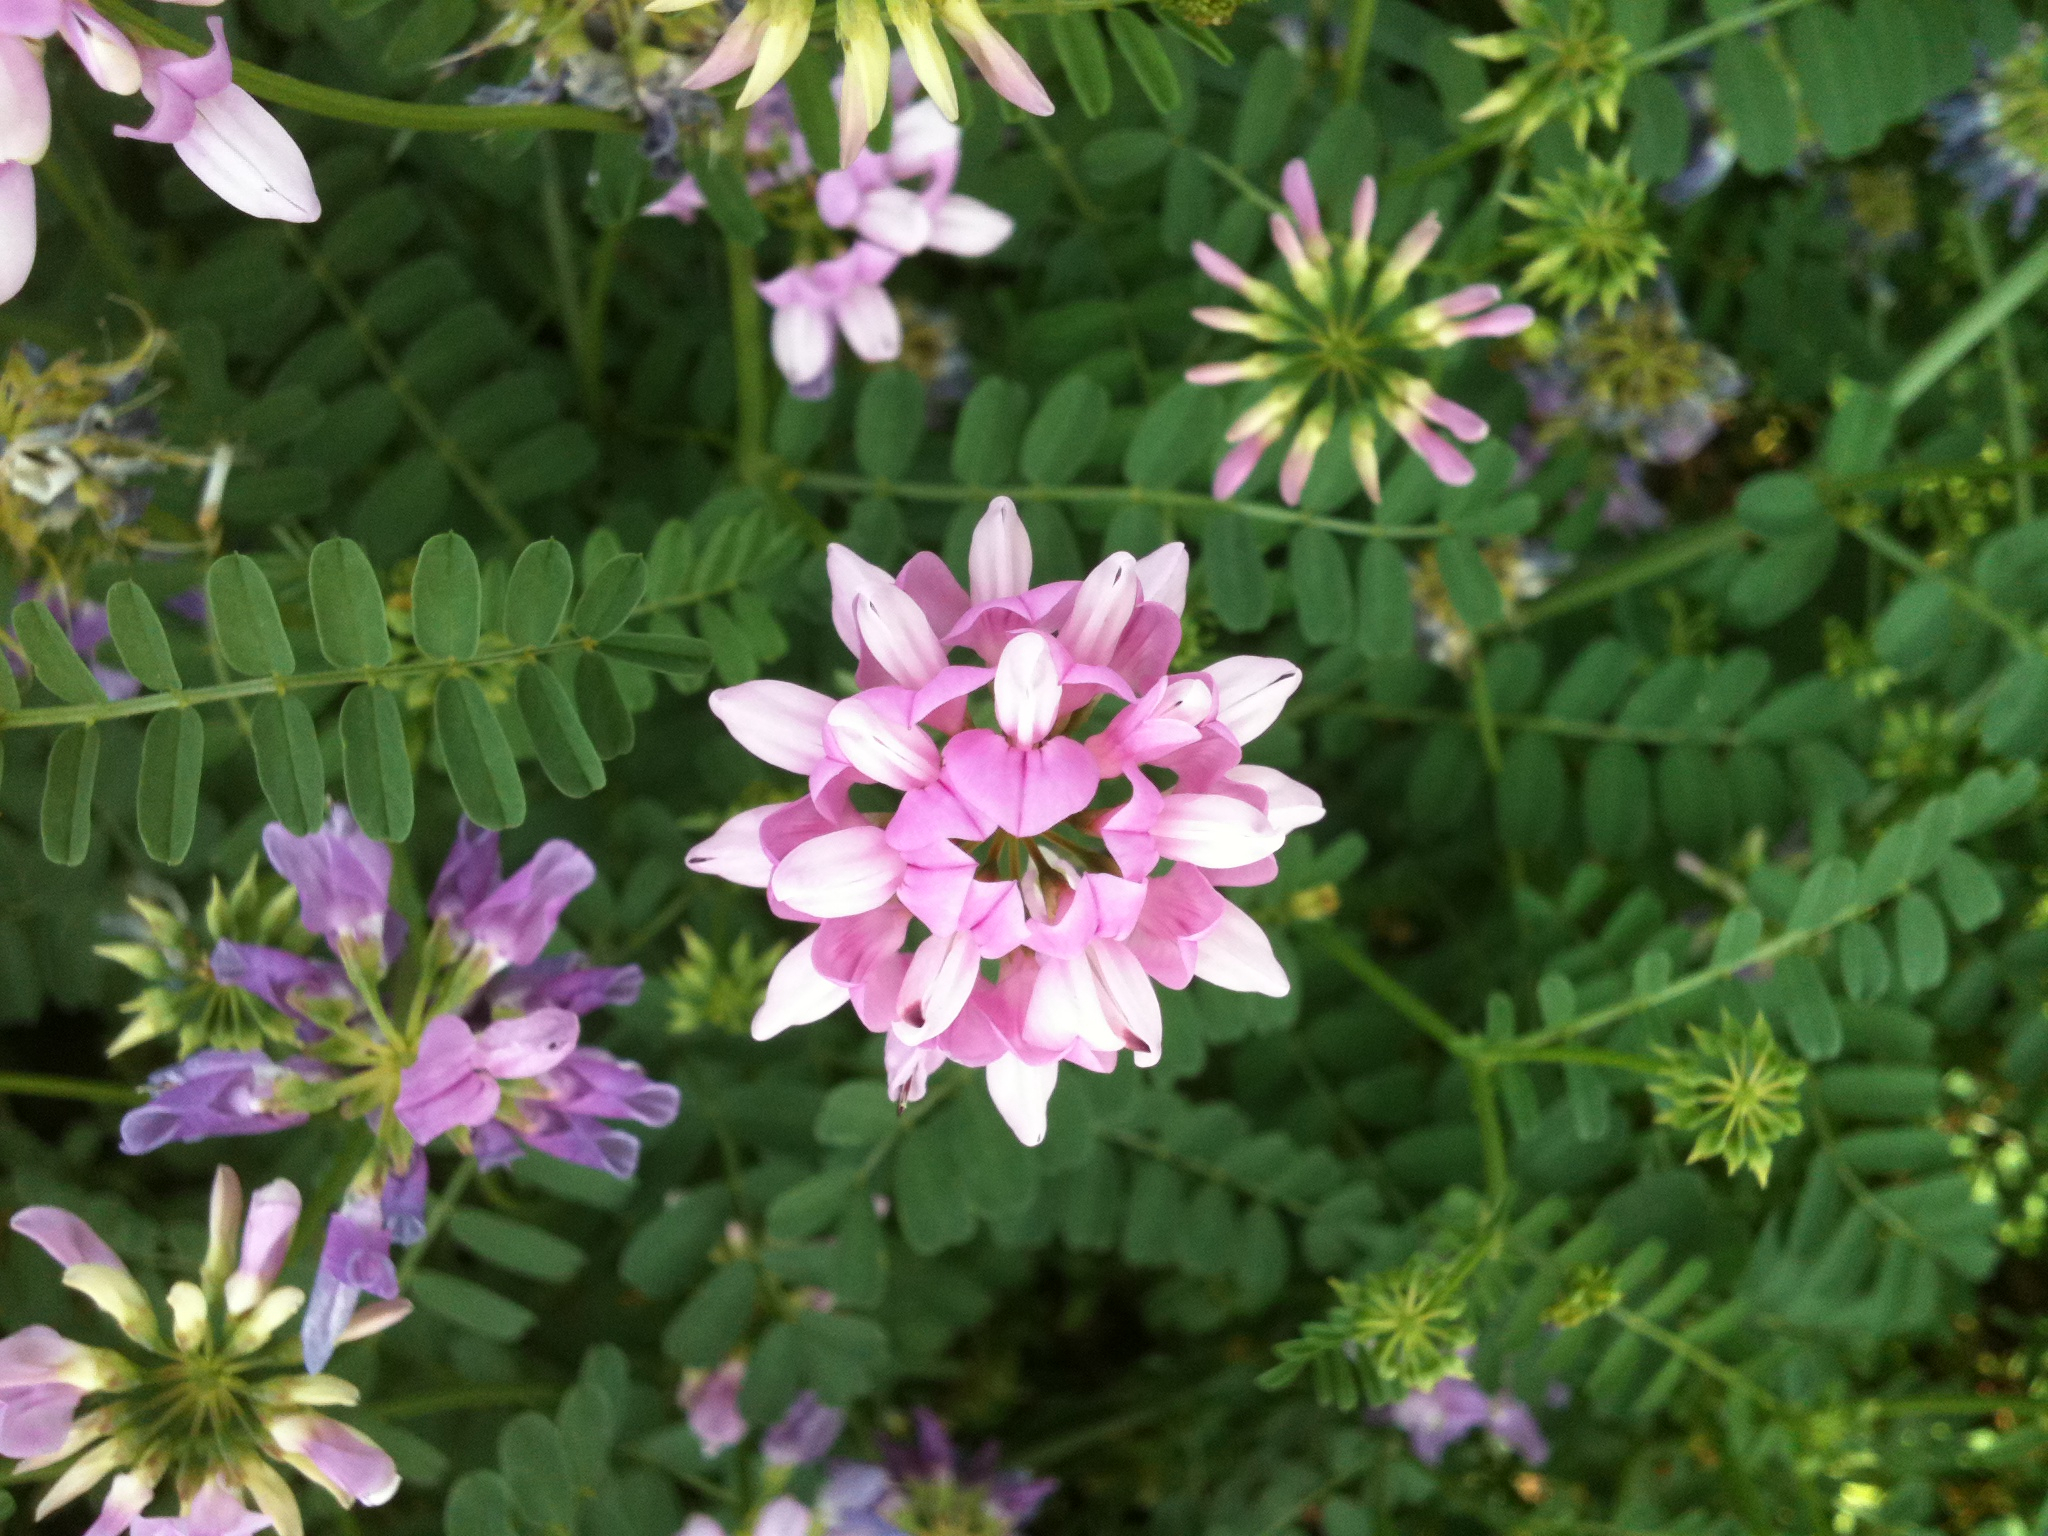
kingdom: Plantae
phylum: Tracheophyta
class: Magnoliopsida
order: Fabales
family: Fabaceae
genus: Coronilla
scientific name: Coronilla varia
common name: Crownvetch
